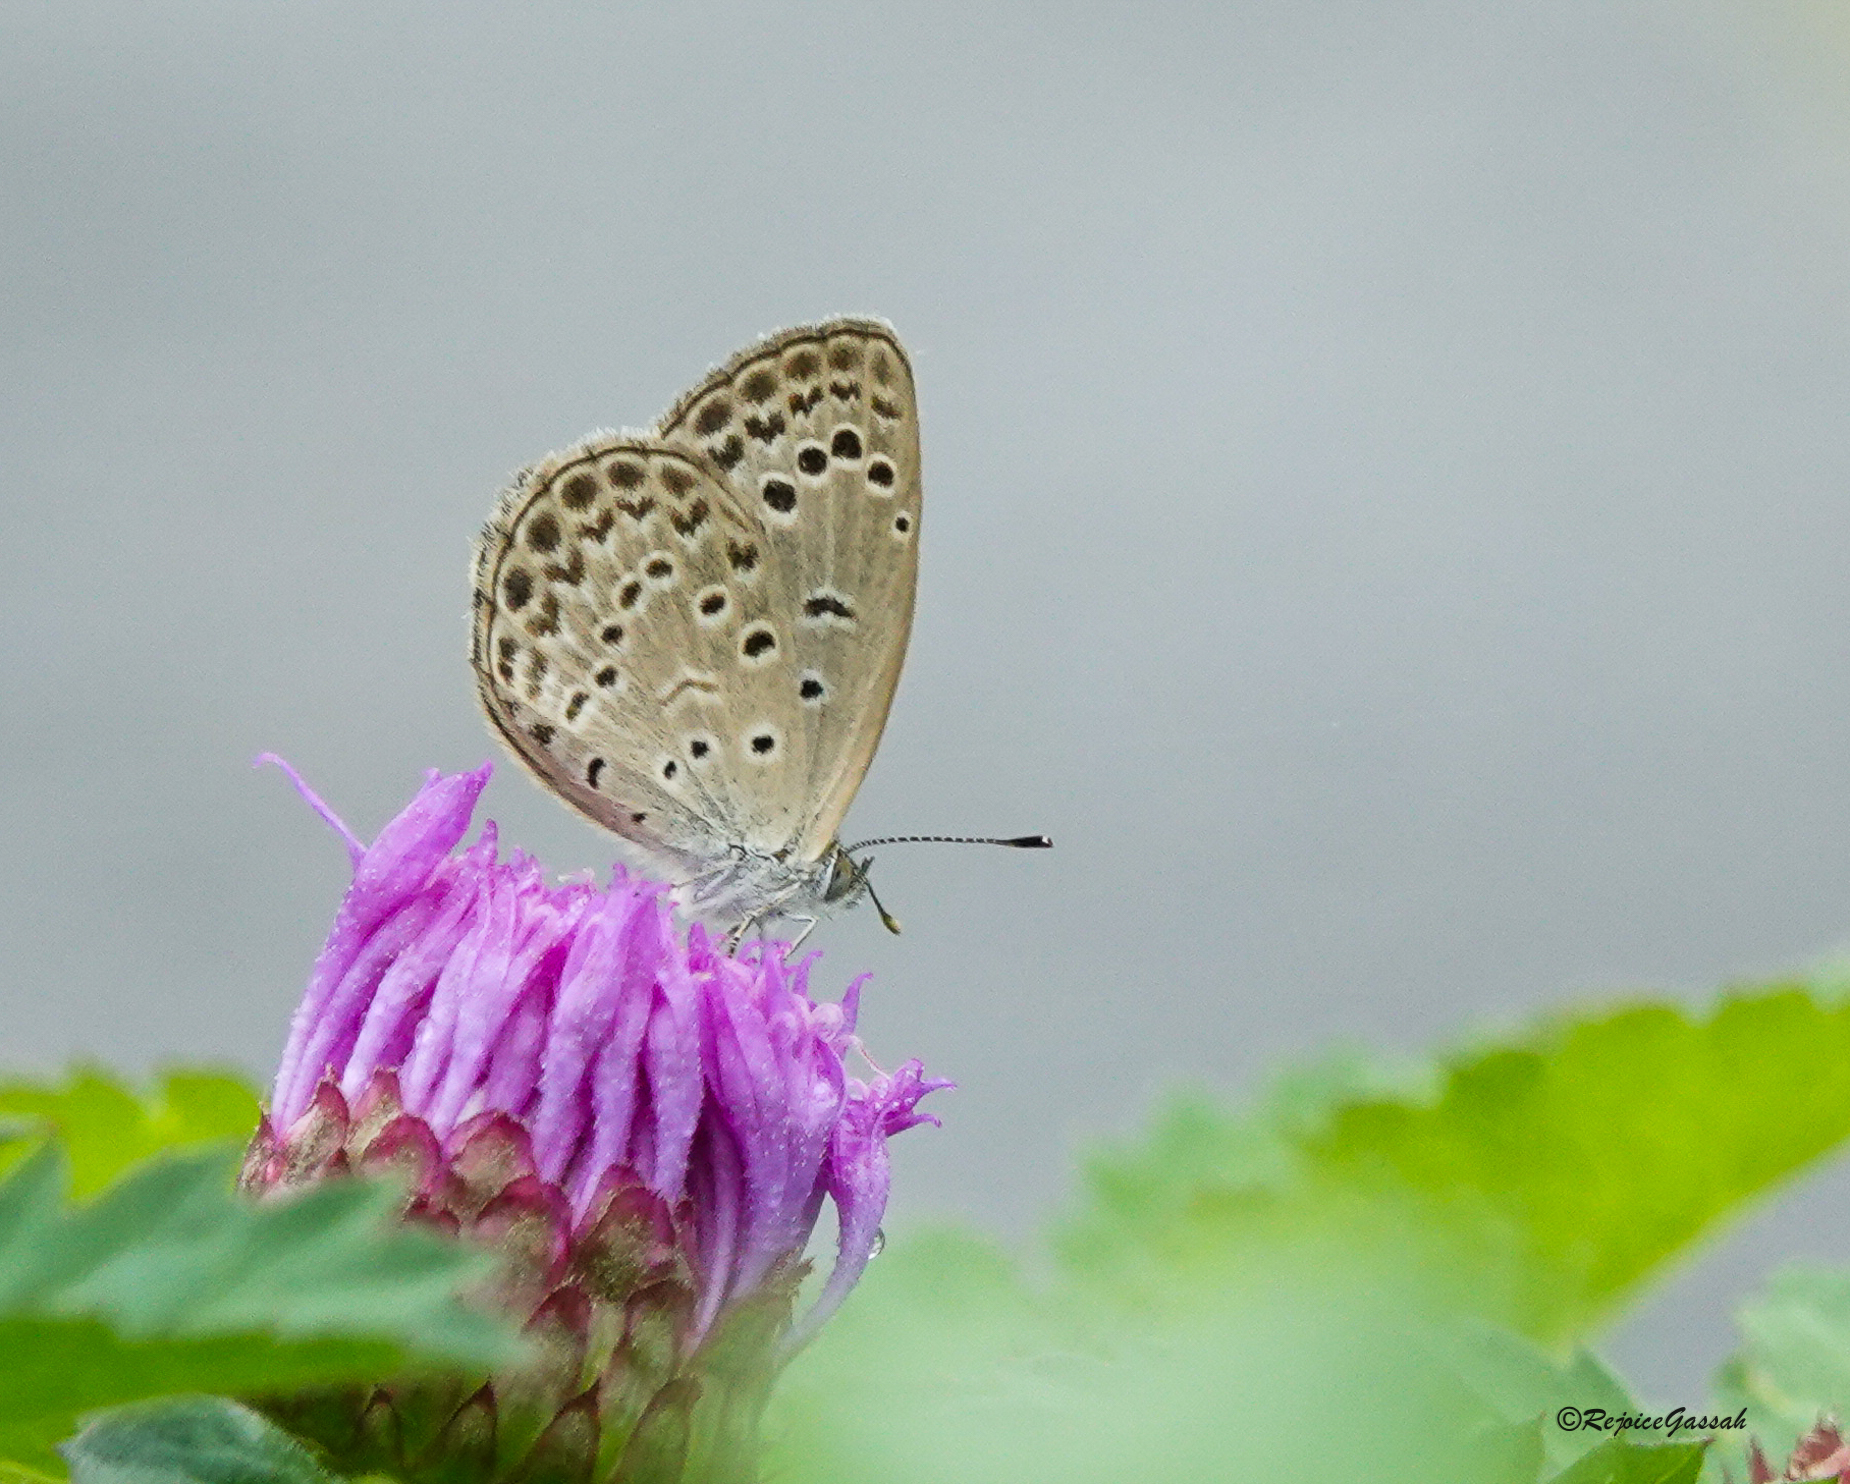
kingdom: Animalia
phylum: Arthropoda
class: Insecta
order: Lepidoptera
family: Lycaenidae
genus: Pseudozizeeria
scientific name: Pseudozizeeria maha
